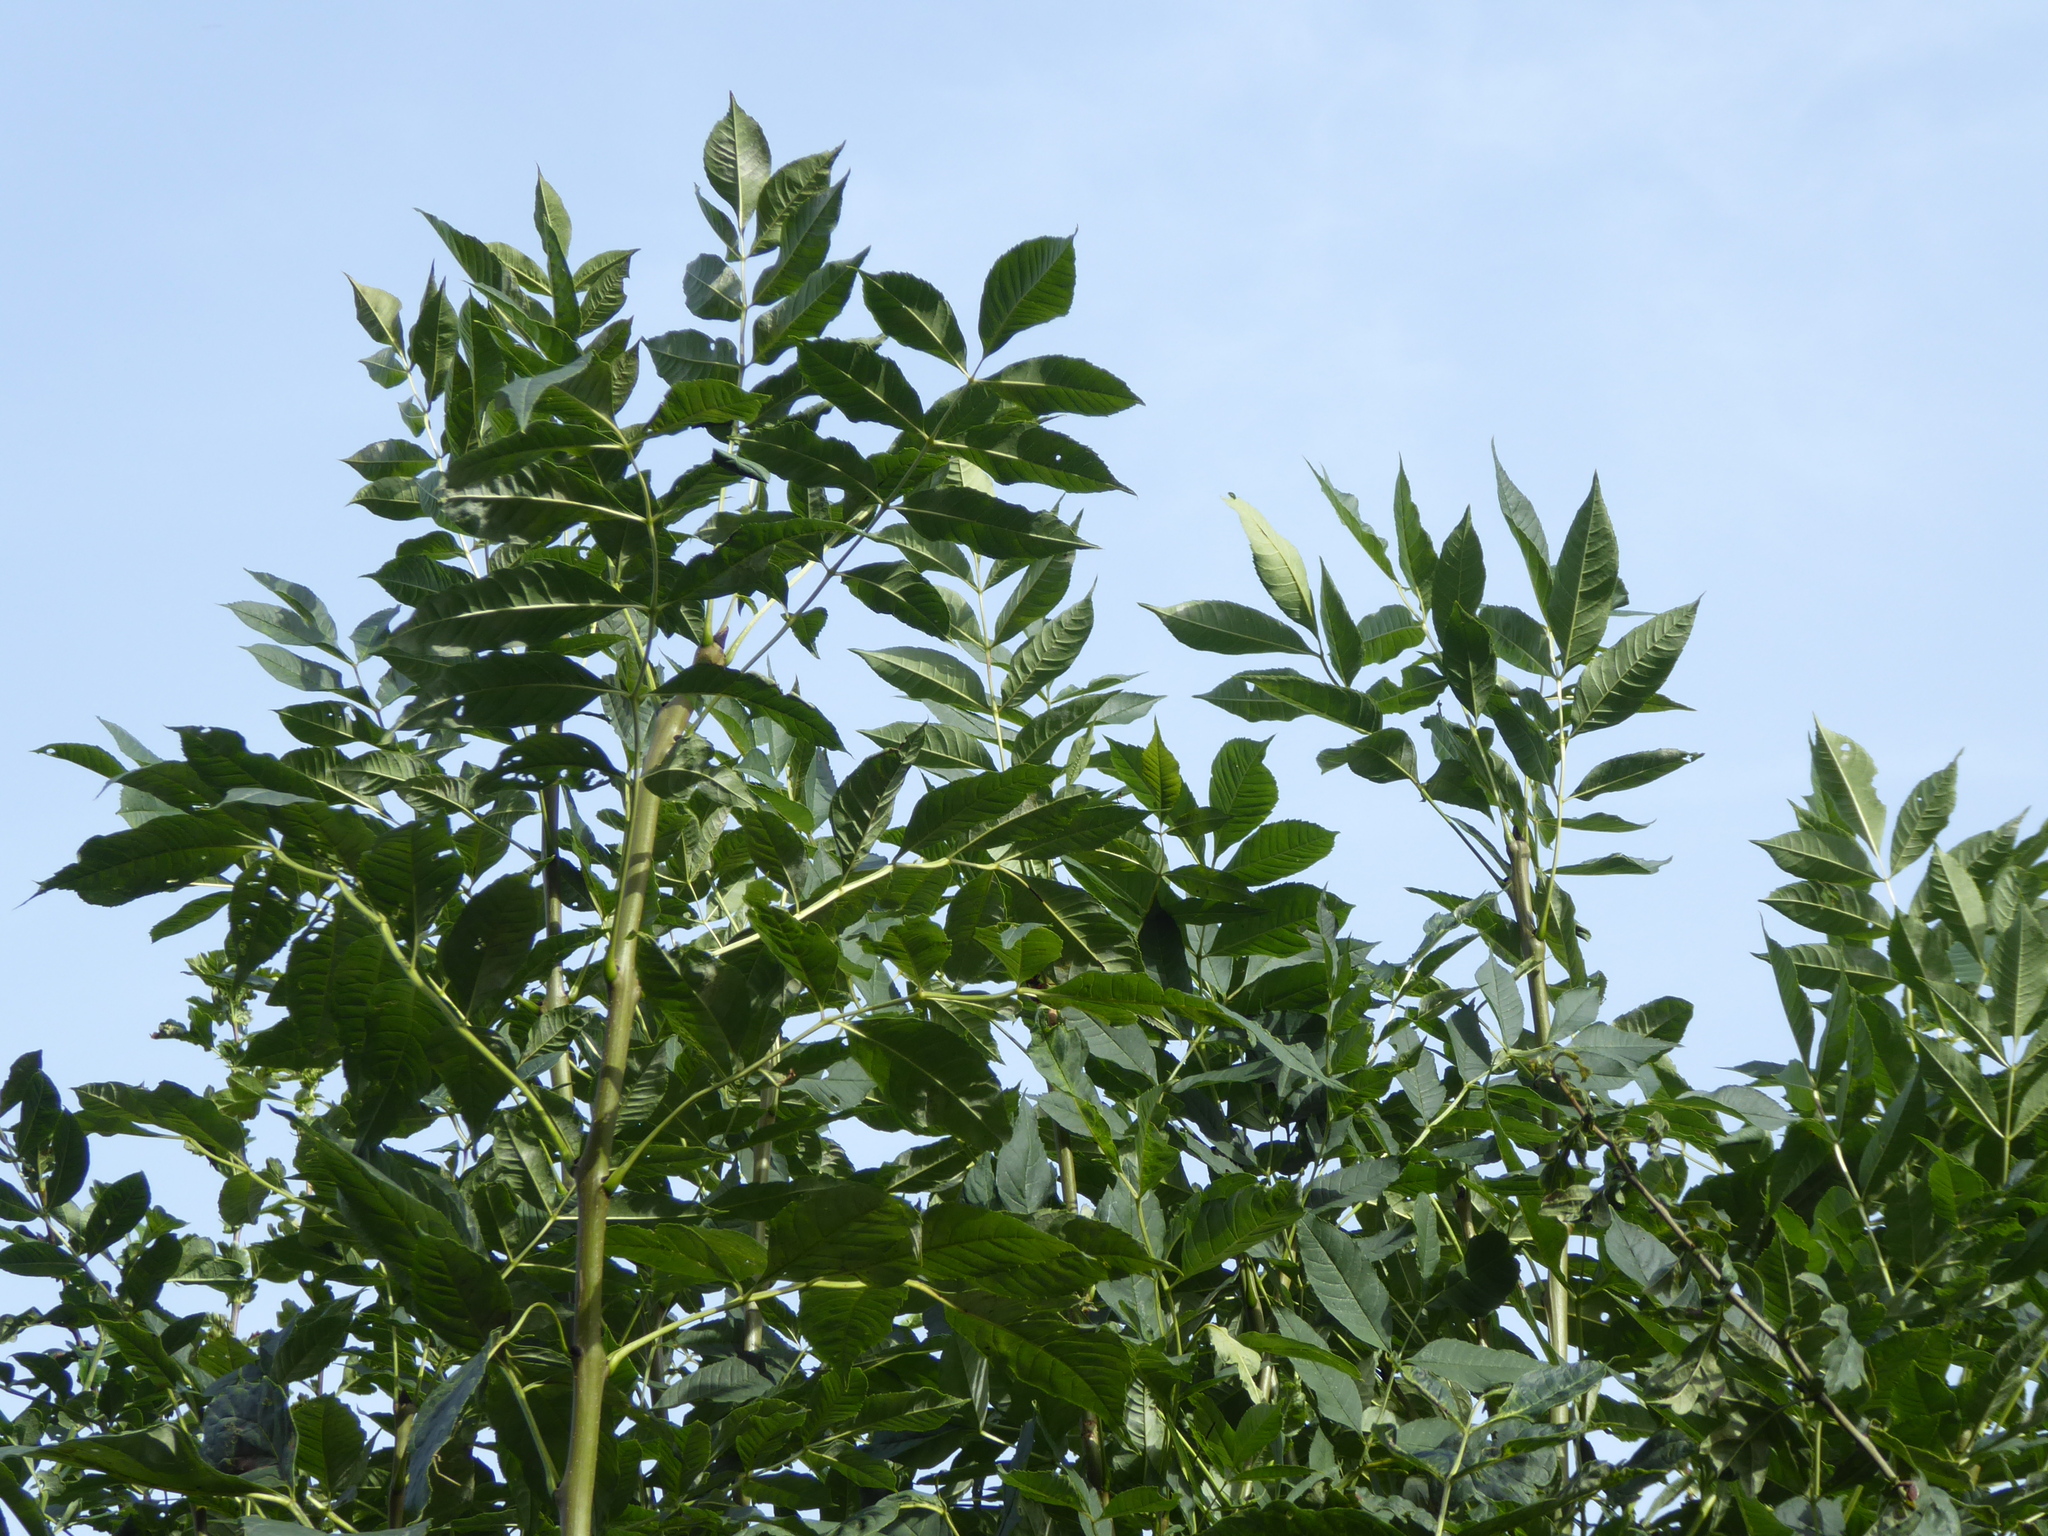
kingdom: Plantae
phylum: Tracheophyta
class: Magnoliopsida
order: Lamiales
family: Oleaceae
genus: Fraxinus
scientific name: Fraxinus excelsior
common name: European ash
